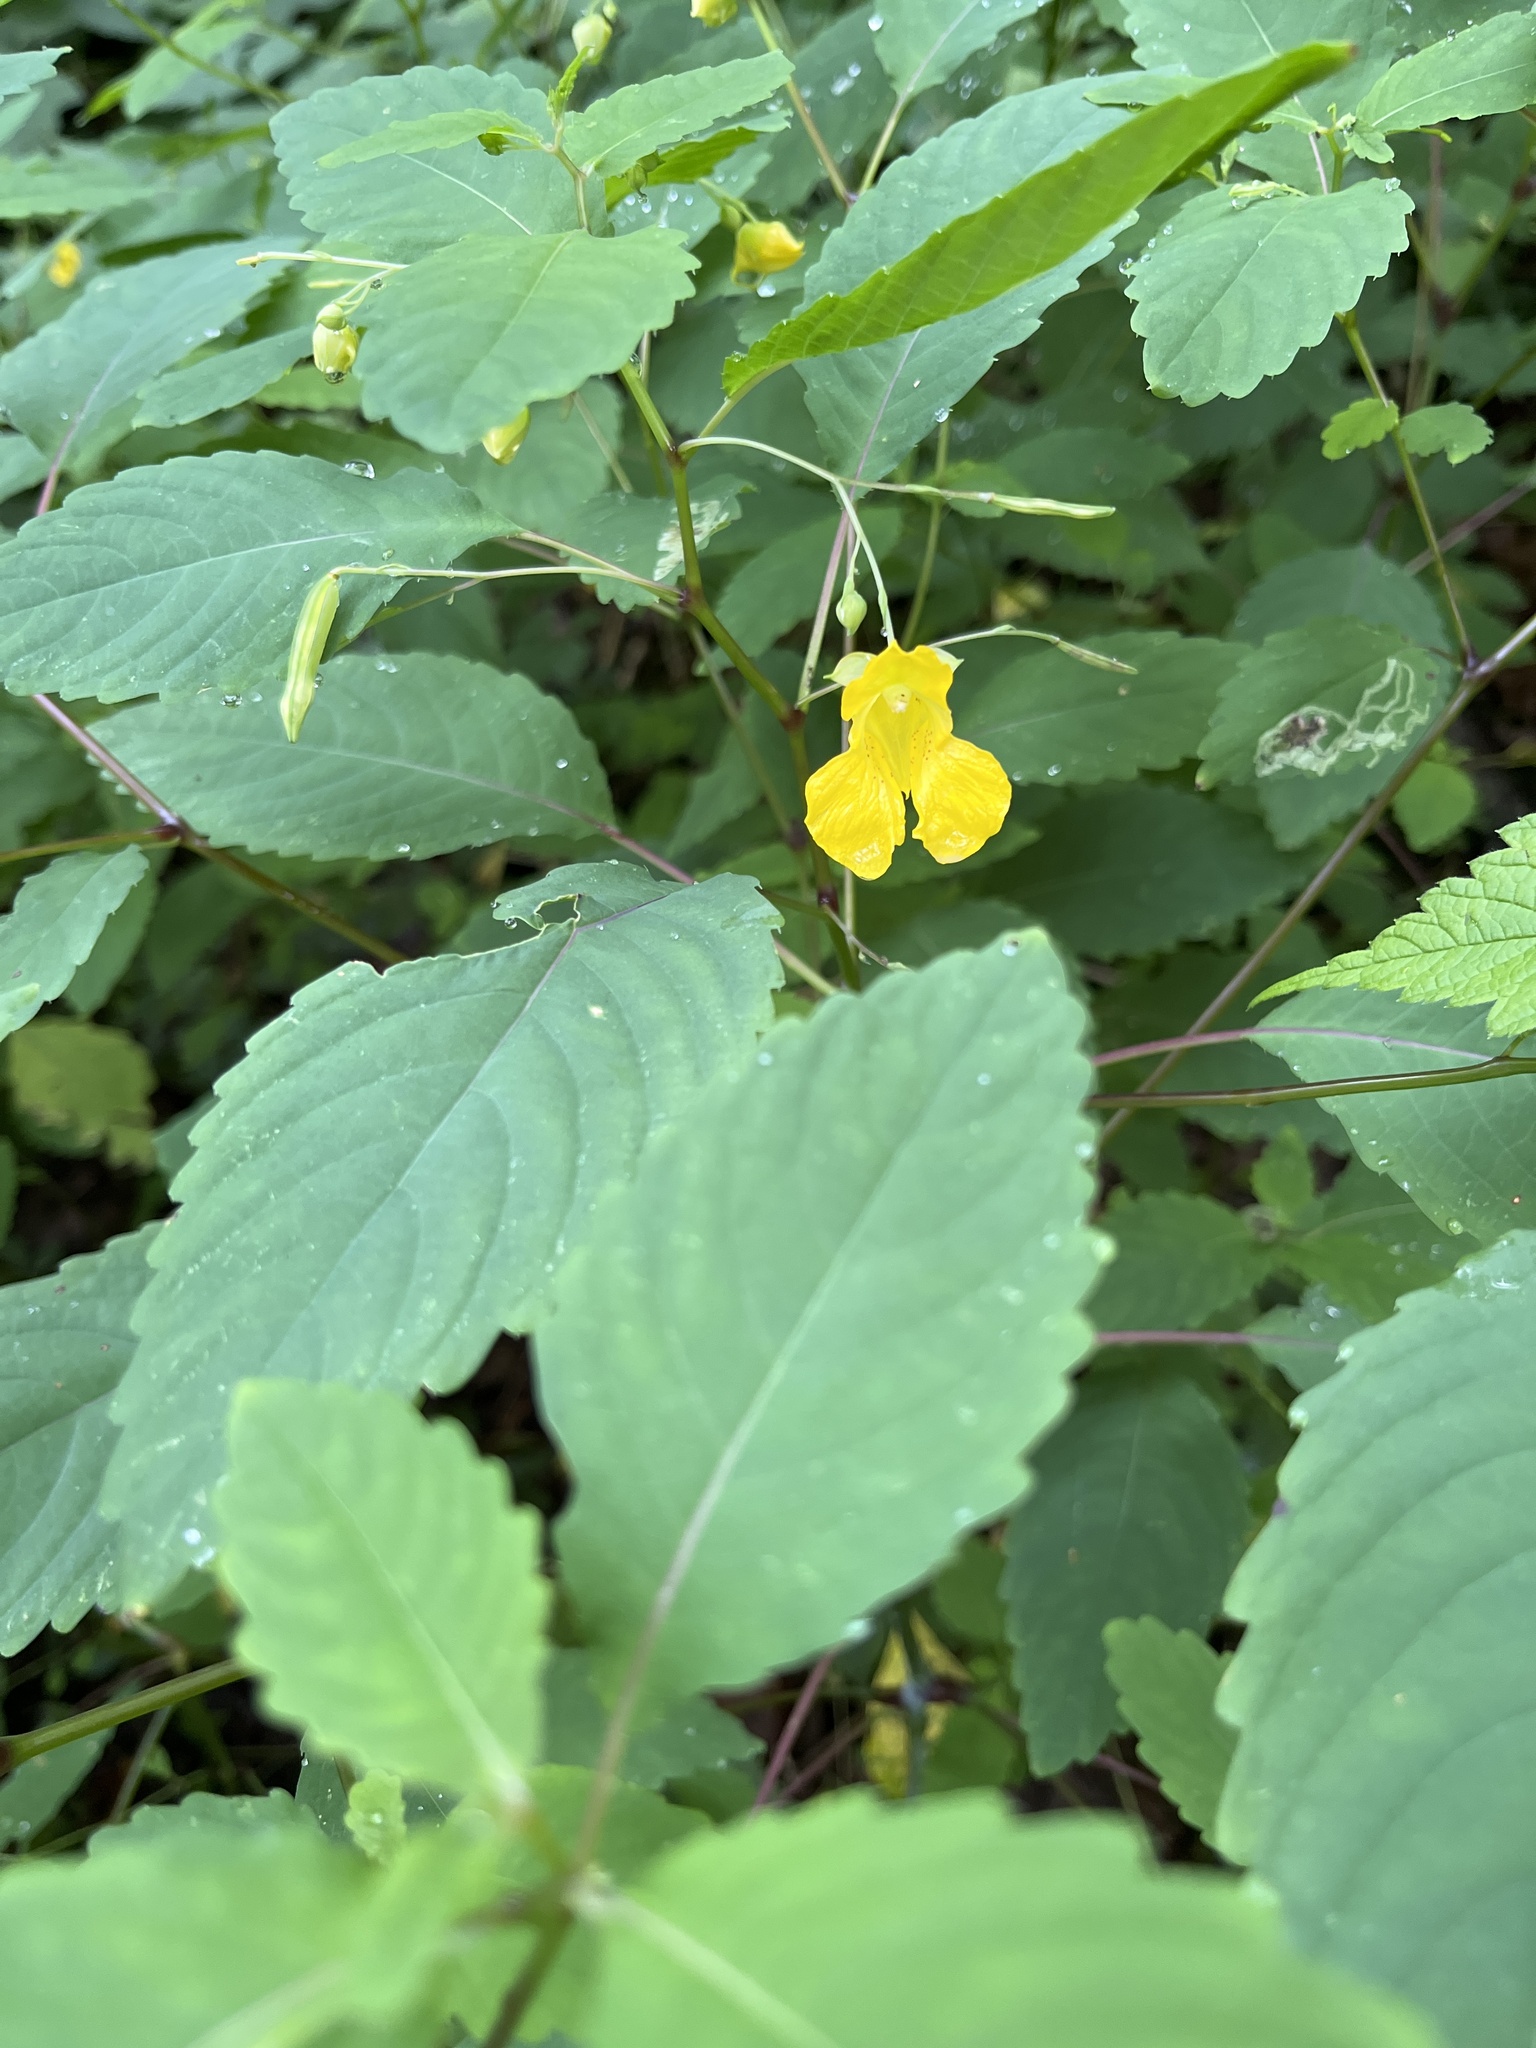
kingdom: Plantae
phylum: Tracheophyta
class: Magnoliopsida
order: Ericales
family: Balsaminaceae
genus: Impatiens
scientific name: Impatiens pallida
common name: Pale snapweed
